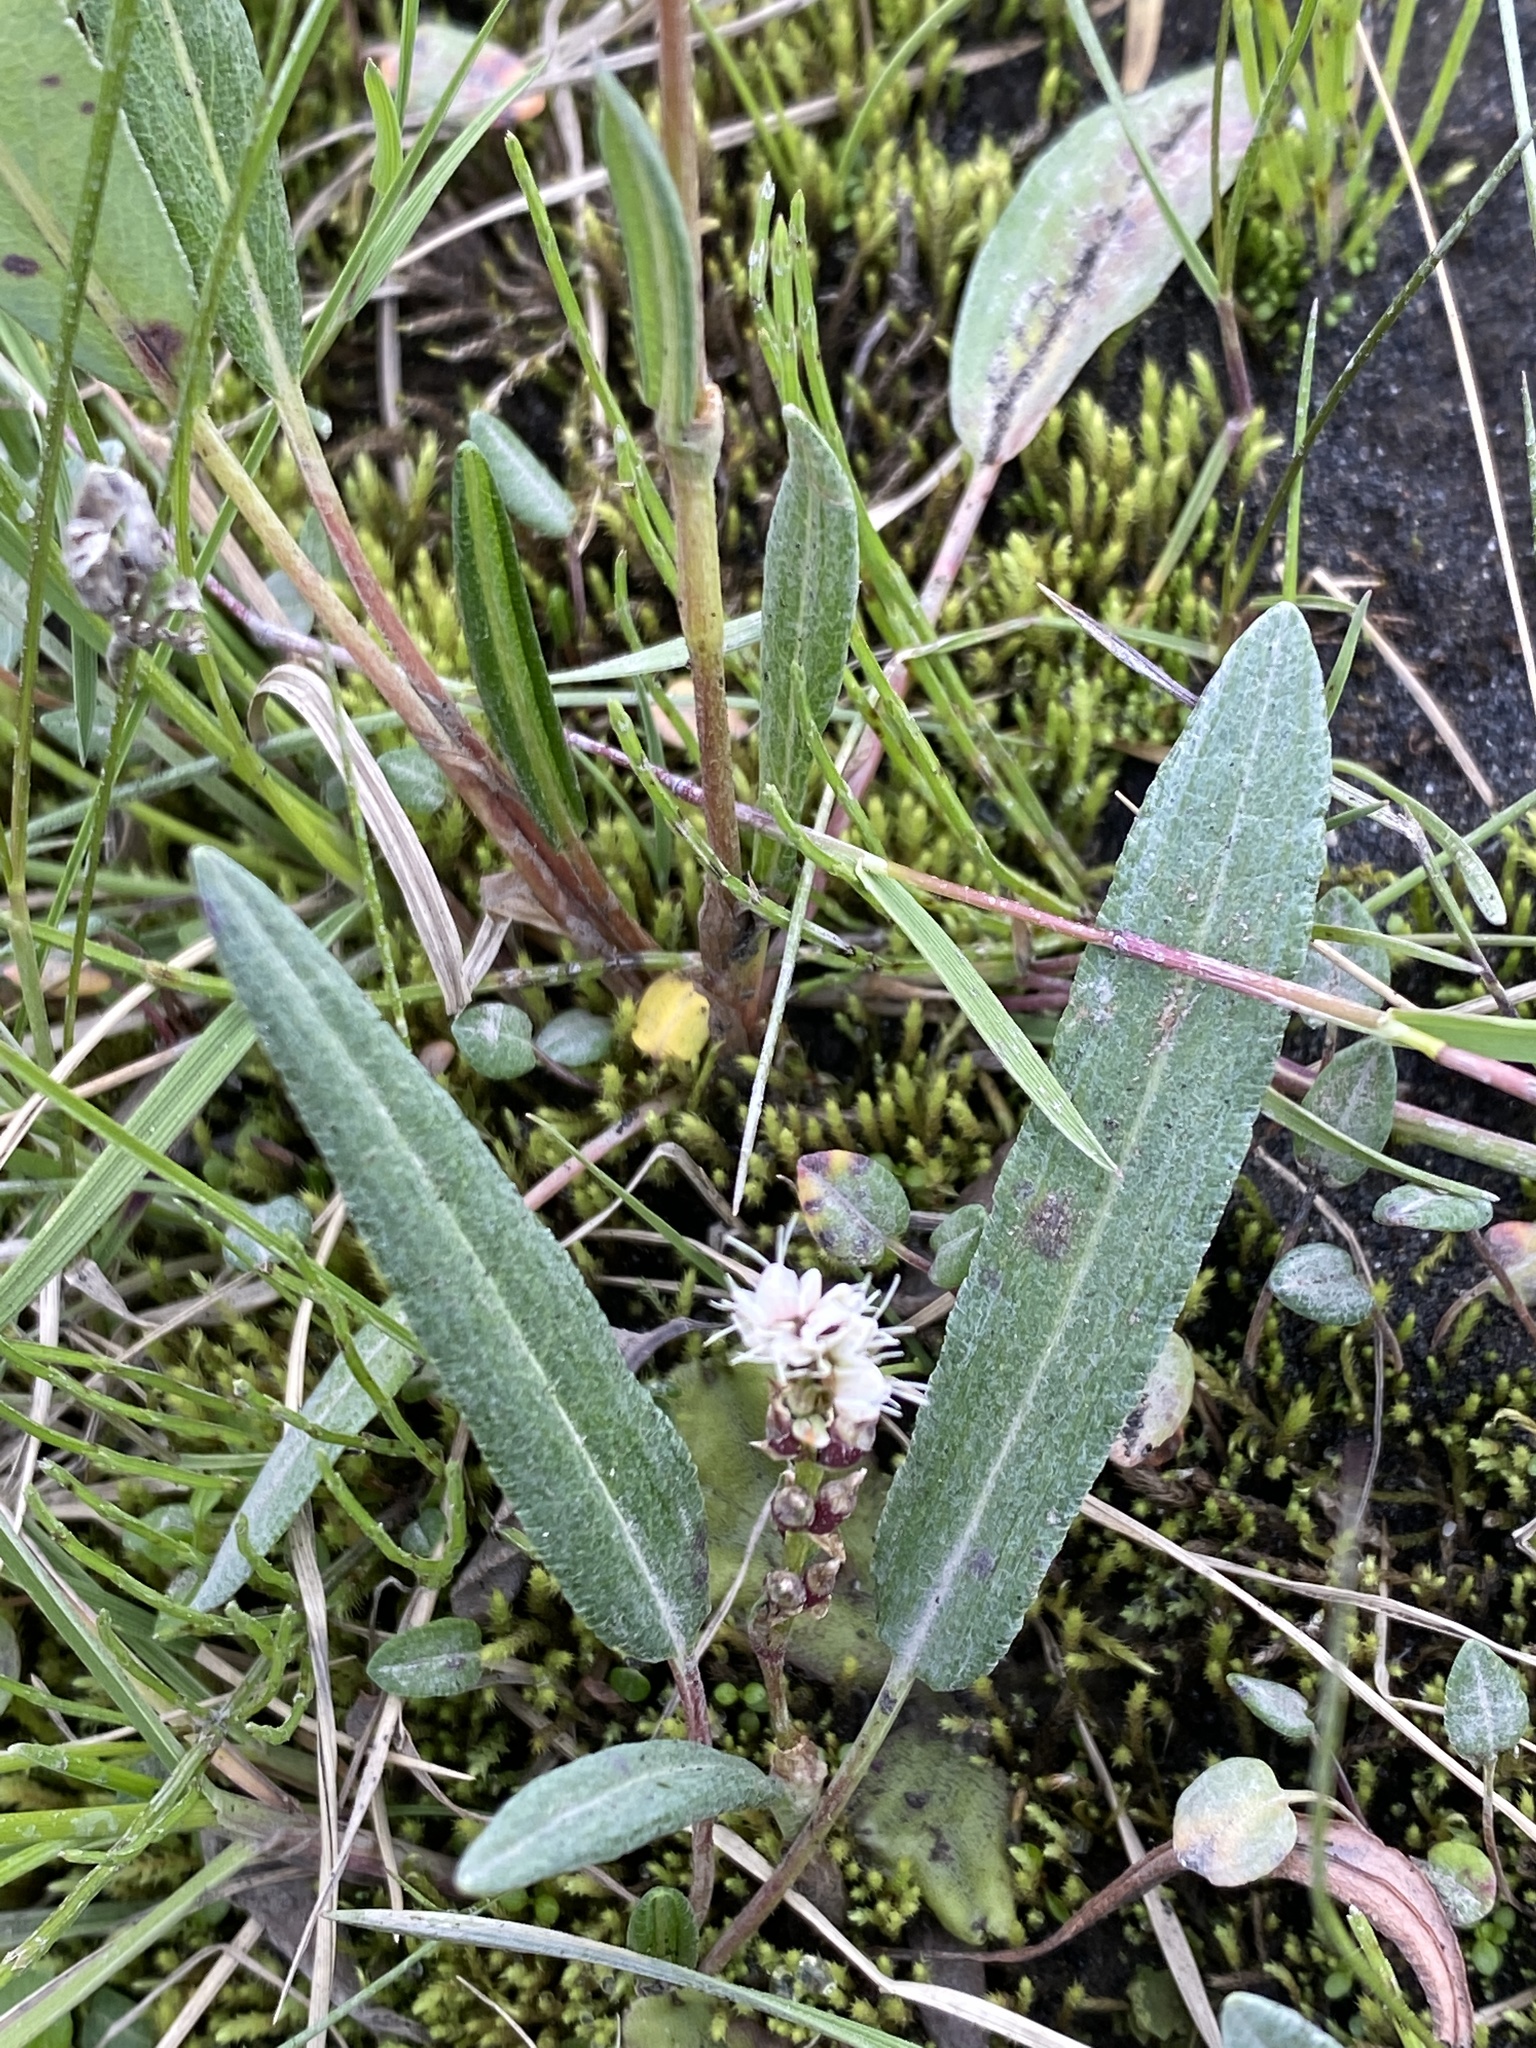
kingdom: Plantae
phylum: Tracheophyta
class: Magnoliopsida
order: Caryophyllales
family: Polygonaceae
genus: Bistorta
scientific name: Bistorta vivipara
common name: Alpine bistort
